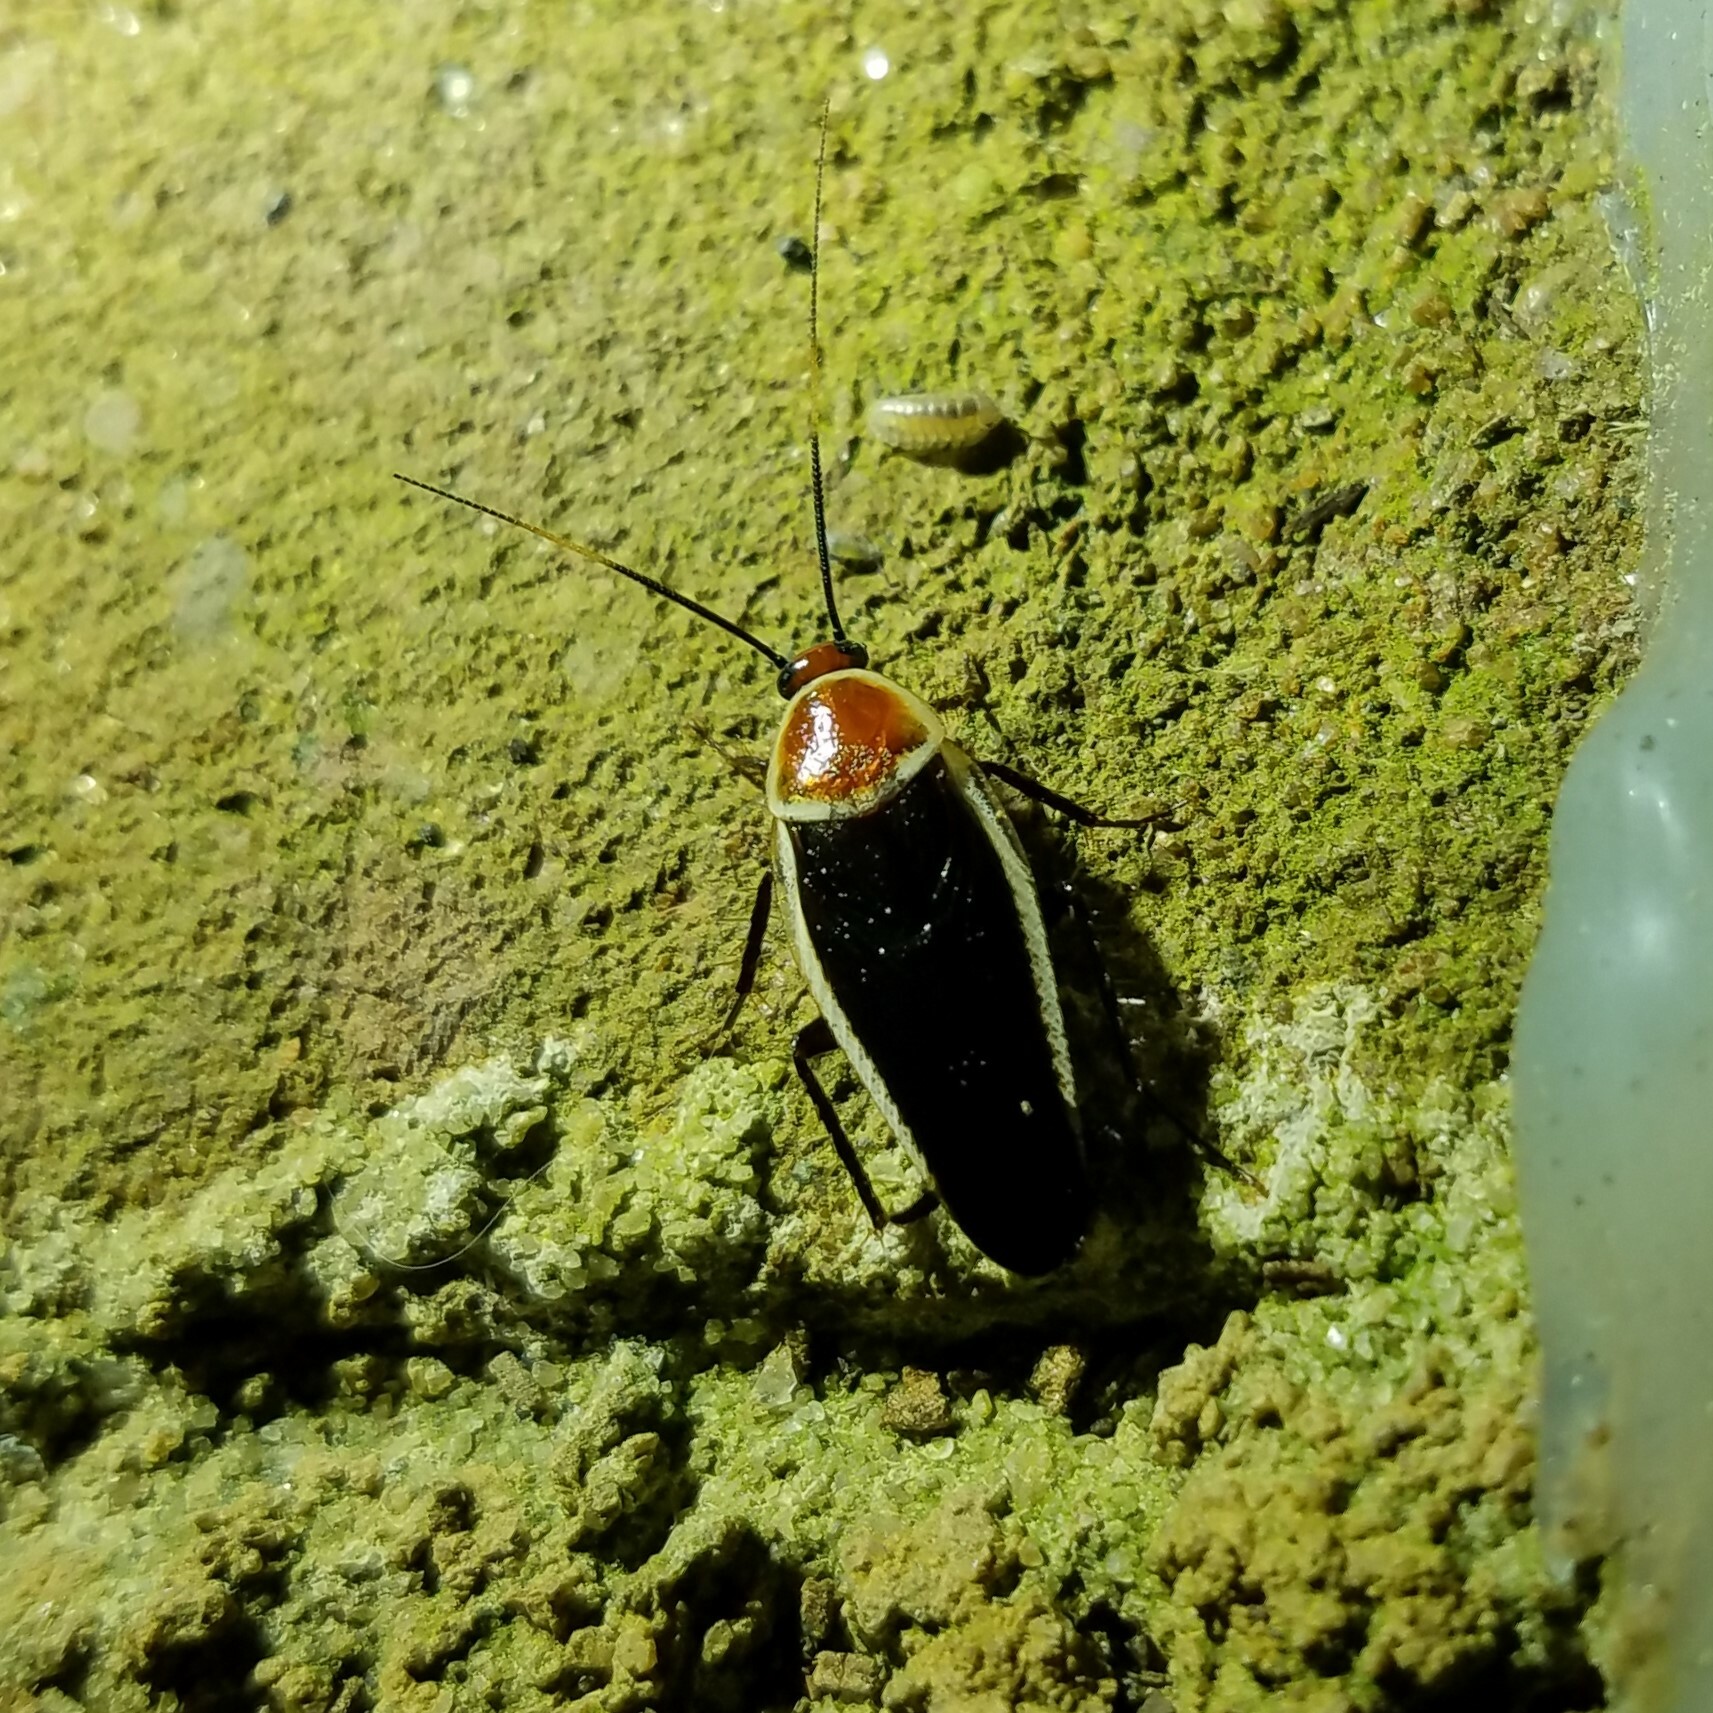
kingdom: Animalia
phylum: Arthropoda
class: Insecta
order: Blattodea
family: Ectobiidae
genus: Pseudomops
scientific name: Pseudomops septentrionalis
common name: Pale-bordered field cockroach
